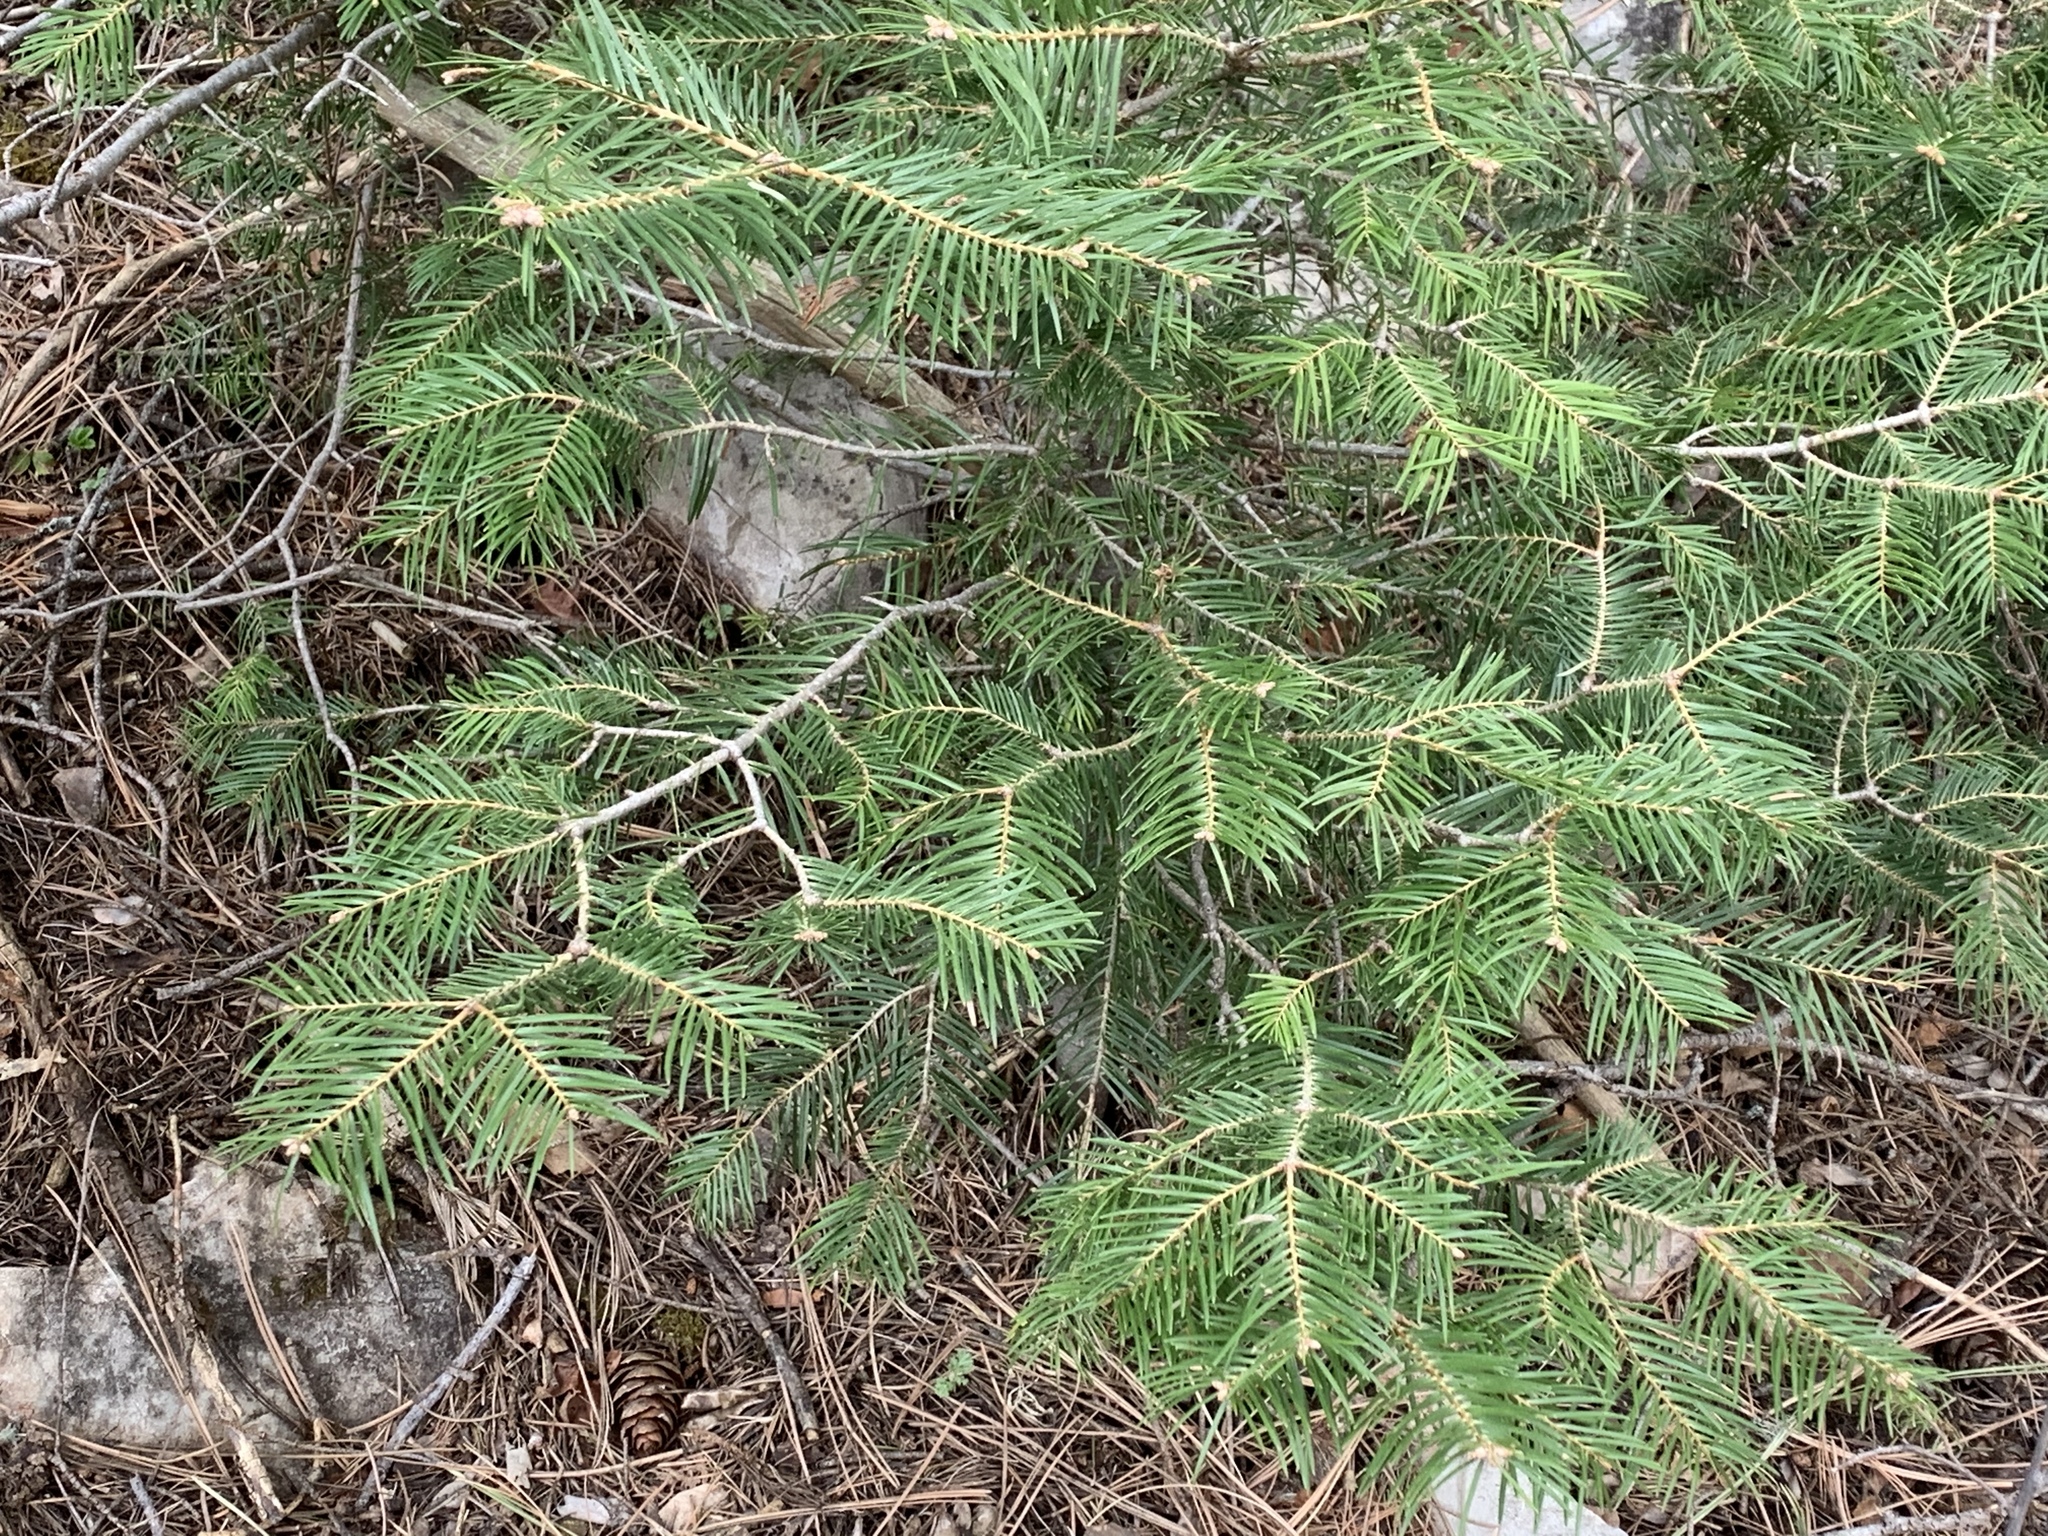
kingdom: Plantae
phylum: Tracheophyta
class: Pinopsida
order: Pinales
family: Pinaceae
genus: Abies
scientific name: Abies concolor
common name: Colorado fir
